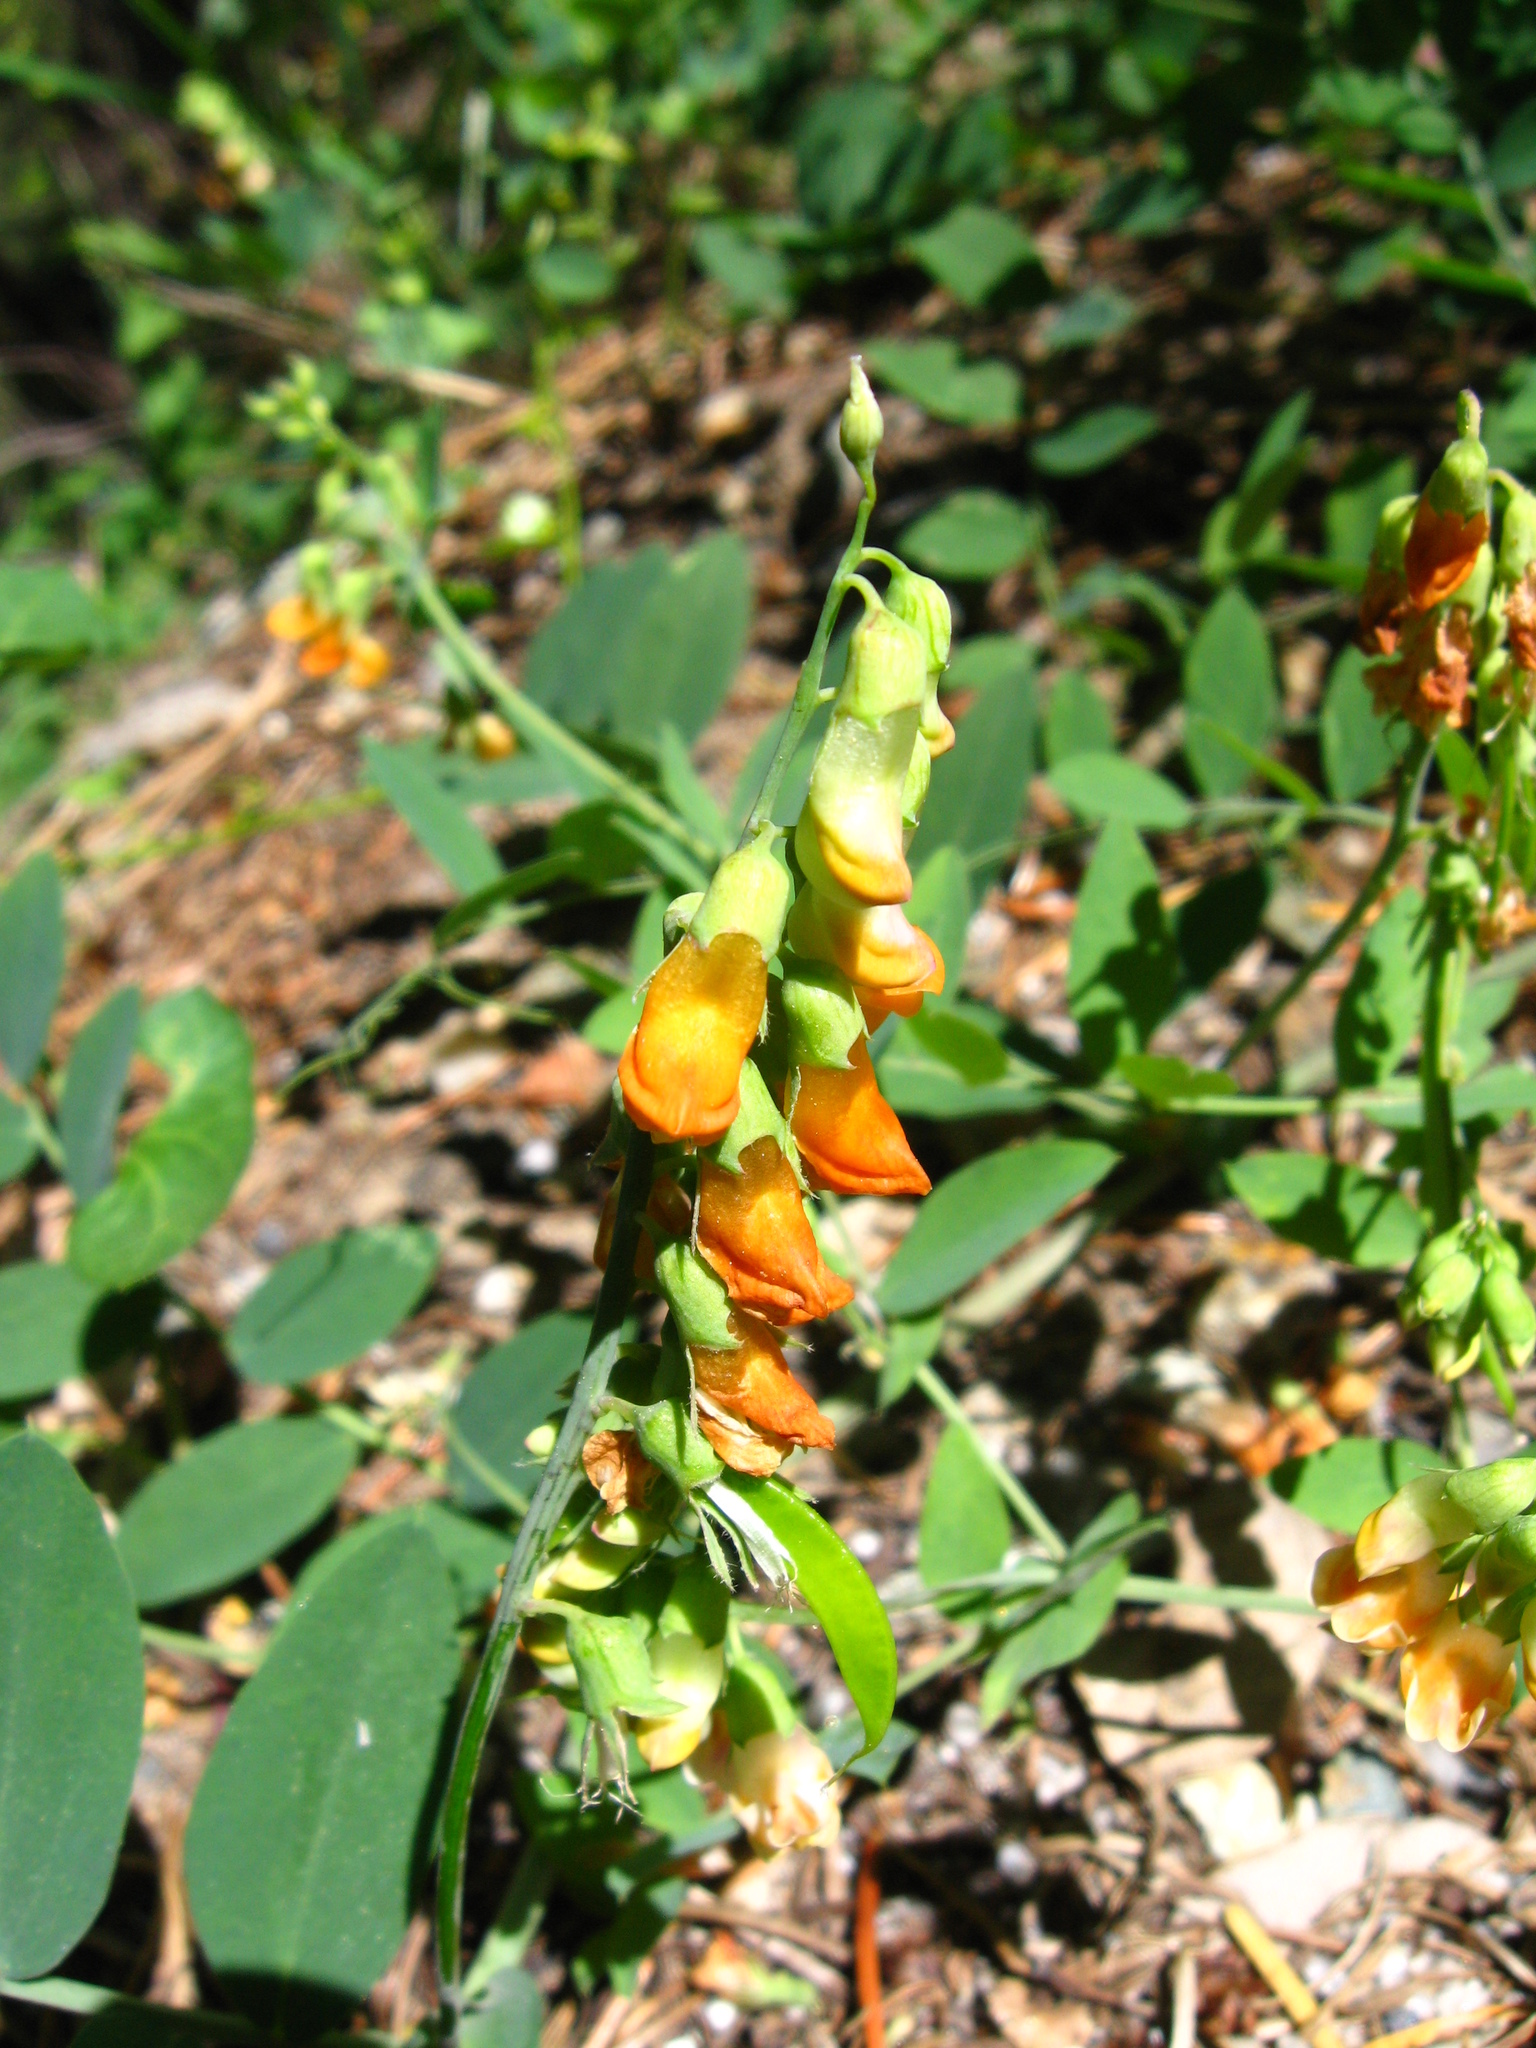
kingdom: Plantae
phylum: Tracheophyta
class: Magnoliopsida
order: Fabales
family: Fabaceae
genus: Lathyrus
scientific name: Lathyrus sulphureus
